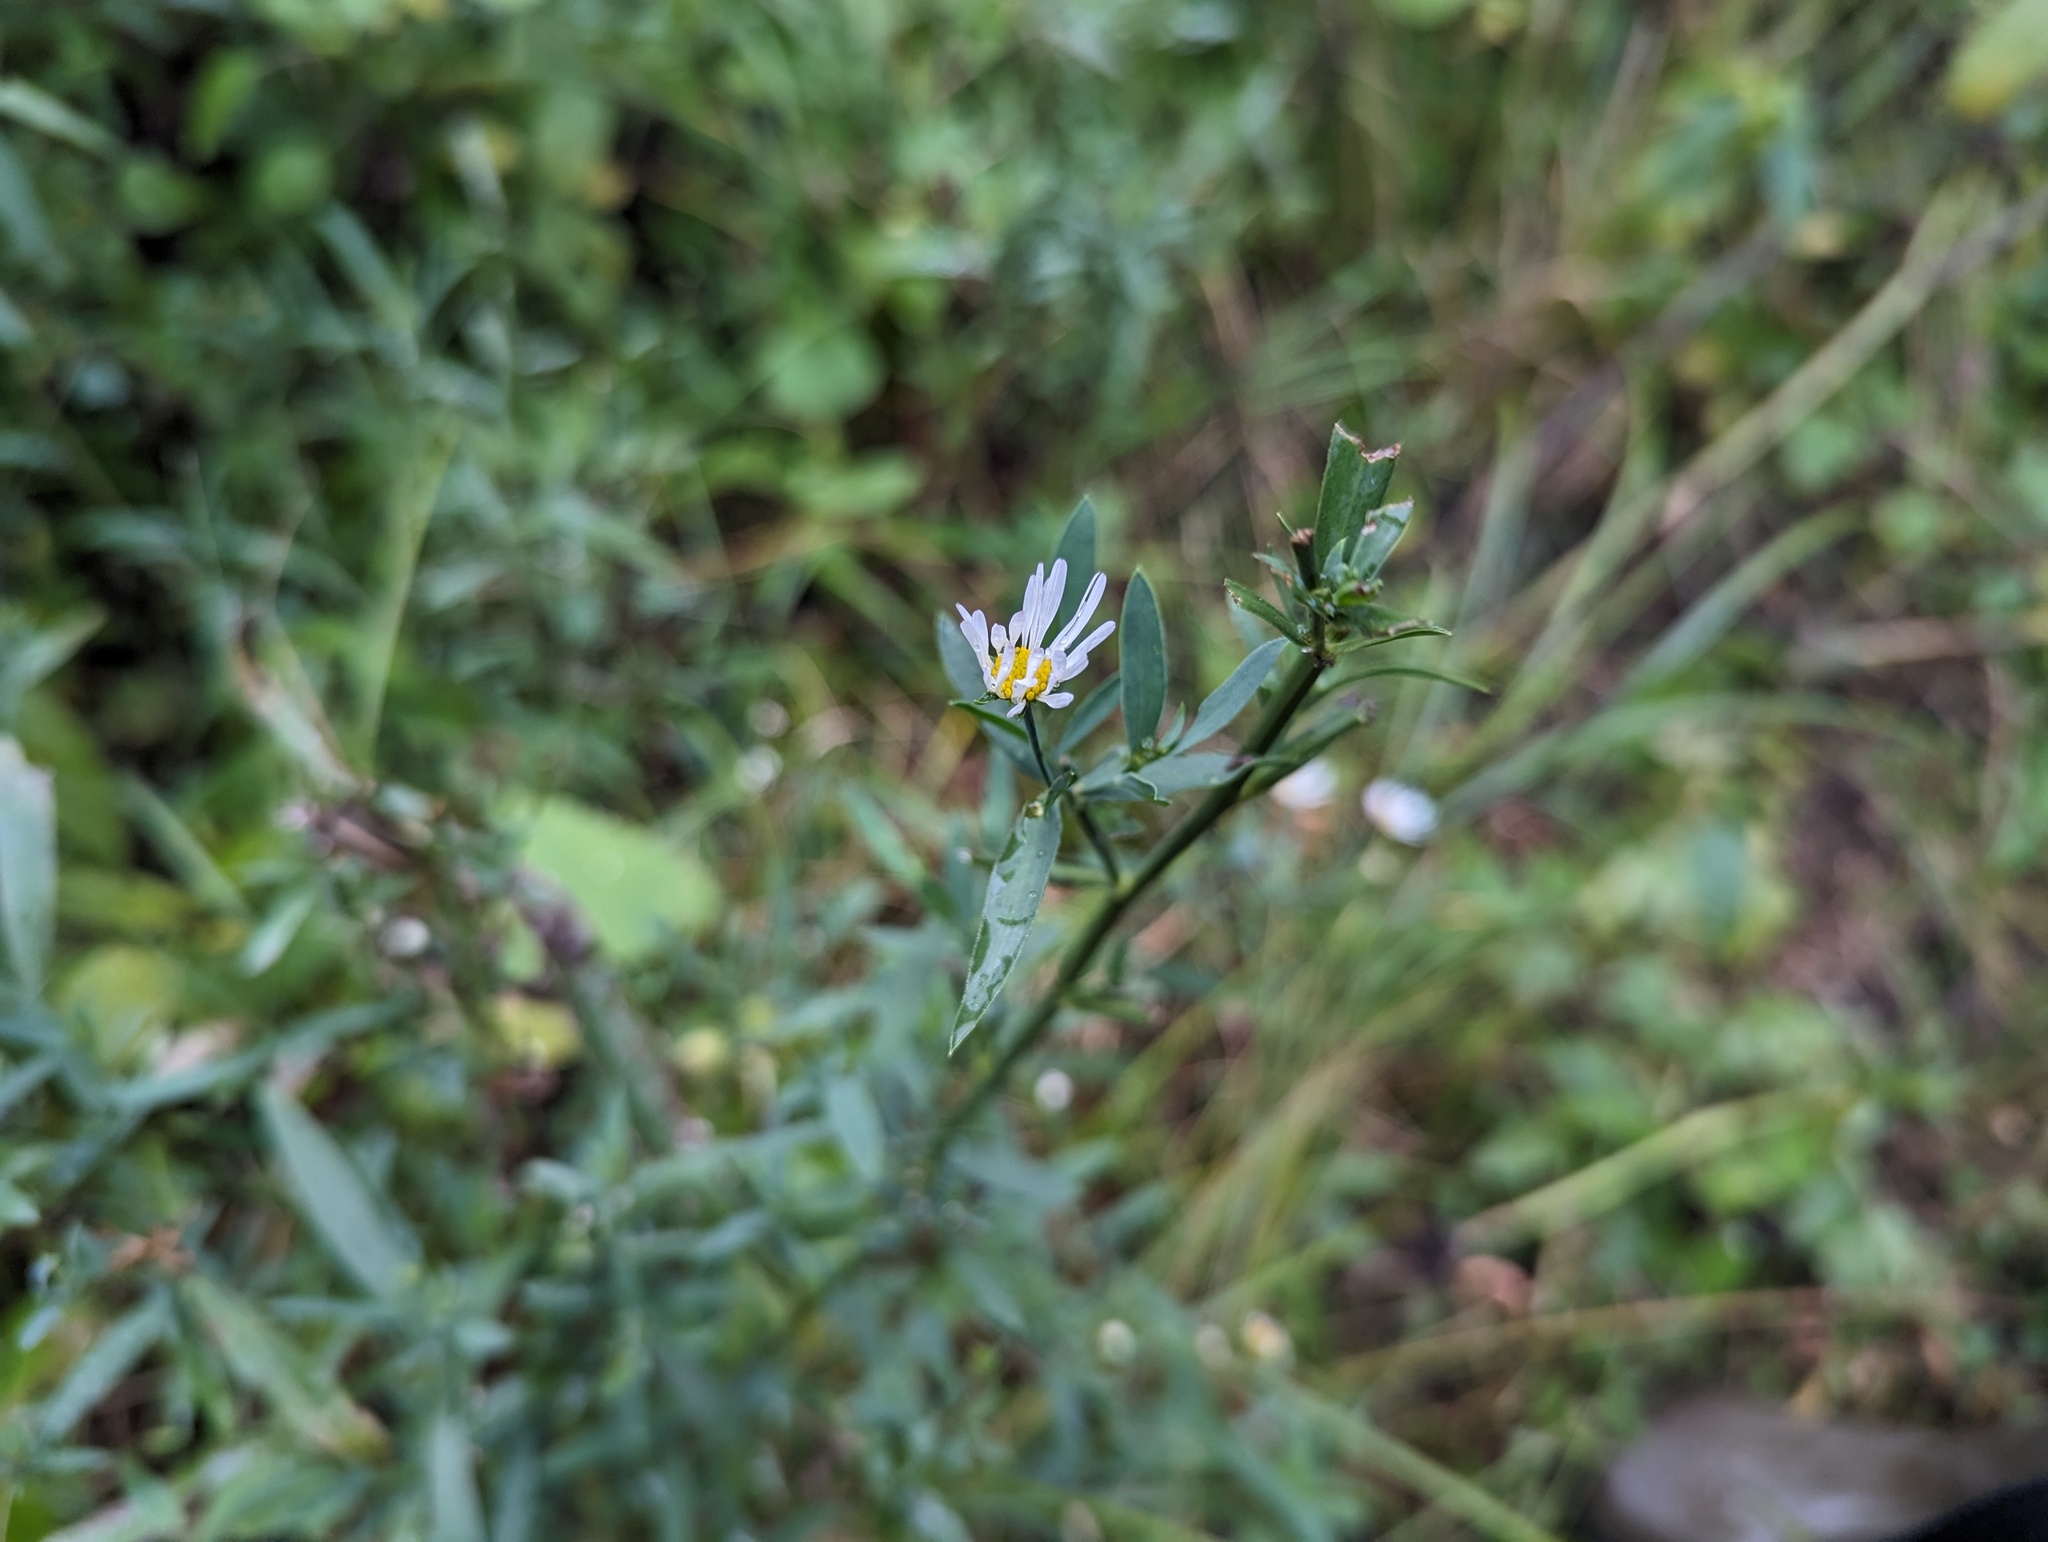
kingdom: Plantae
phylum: Tracheophyta
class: Magnoliopsida
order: Asterales
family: Asteraceae
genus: Boltonia
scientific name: Boltonia asteroides
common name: False chamomile
